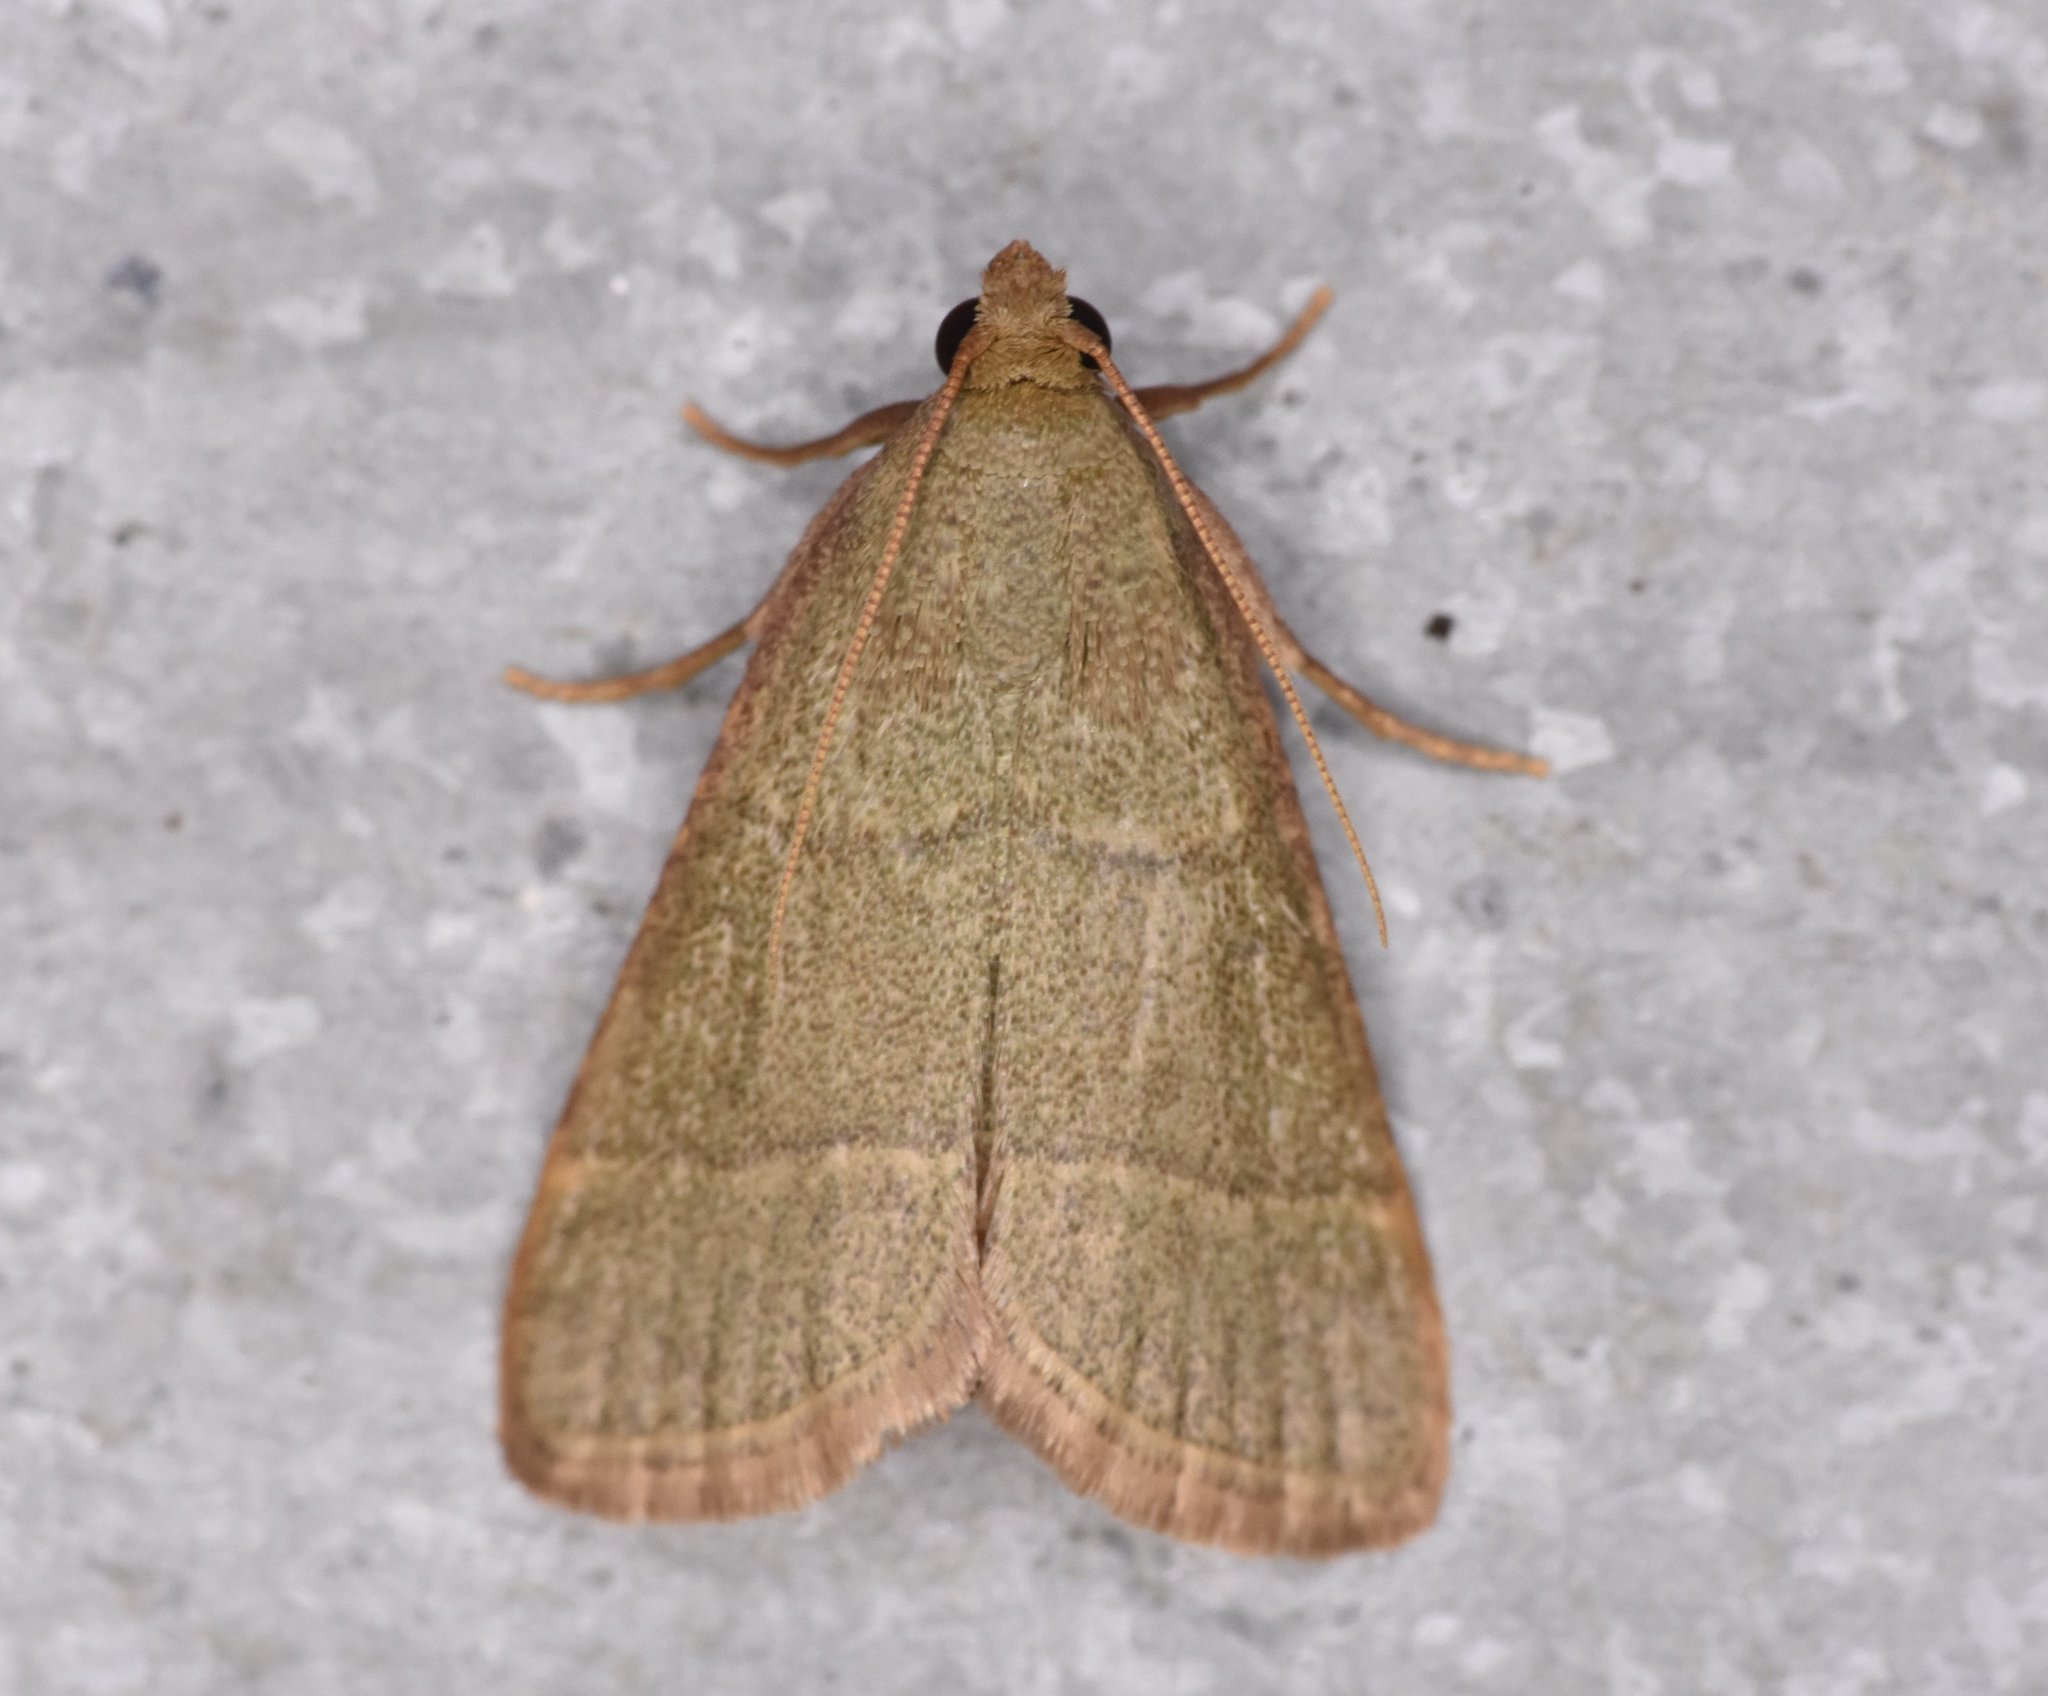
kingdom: Animalia
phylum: Arthropoda
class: Insecta
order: Lepidoptera
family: Pyralidae
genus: Hypsopygia
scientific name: Hypsopygia nostralis
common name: Southern hayworm moth
